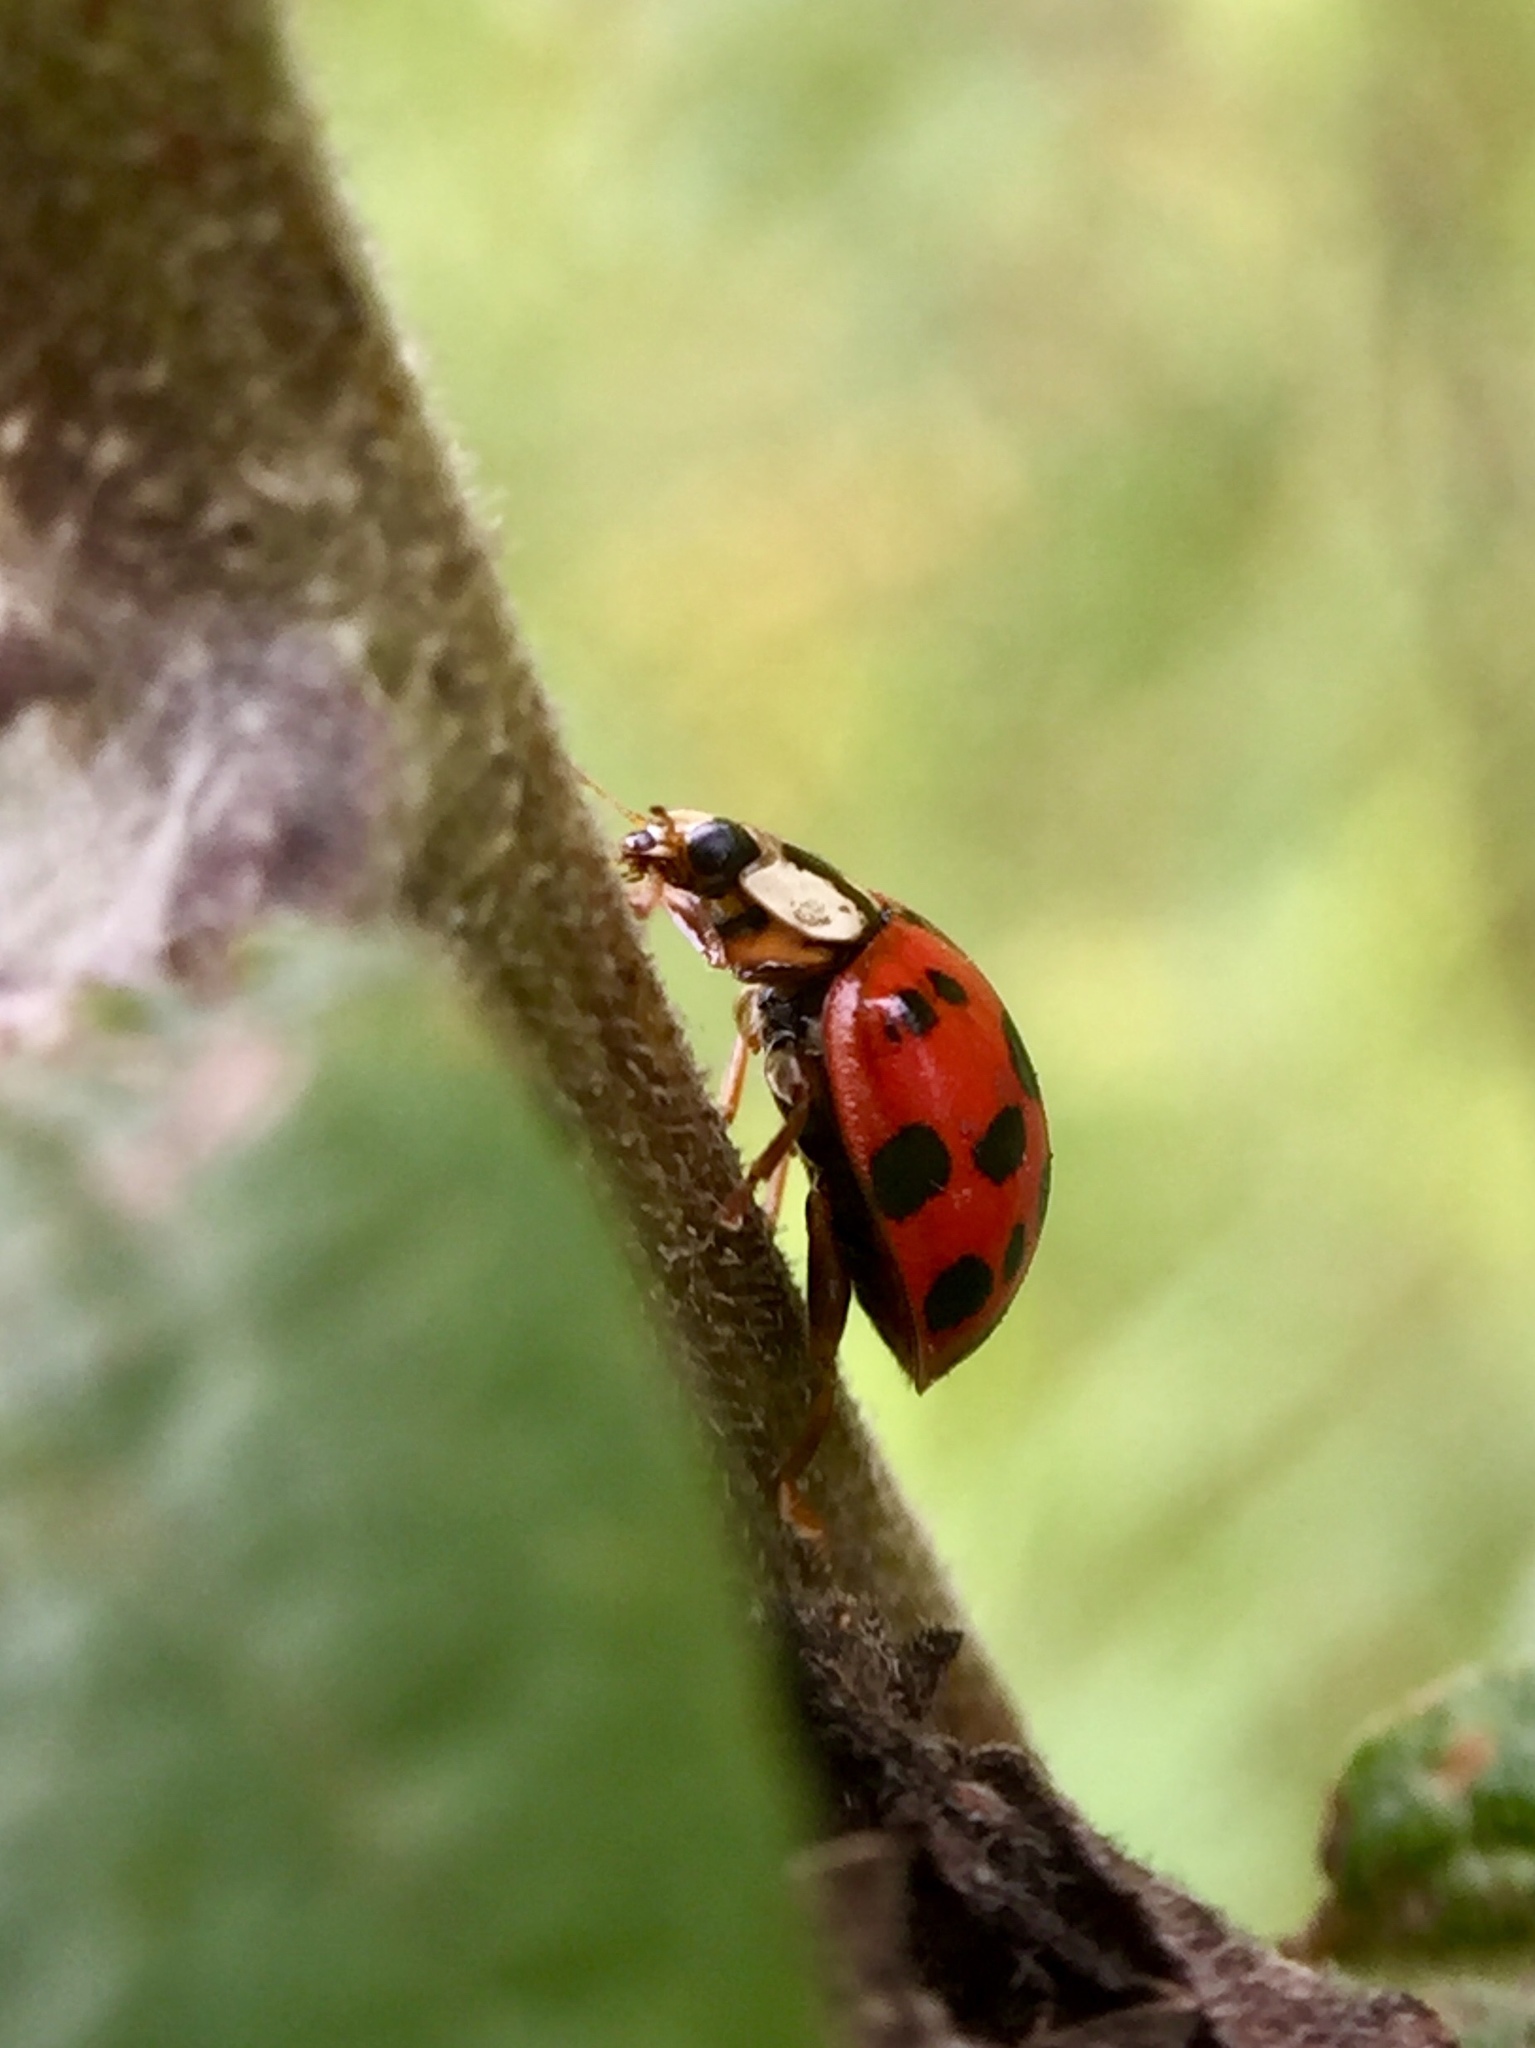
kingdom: Animalia
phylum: Arthropoda
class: Insecta
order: Coleoptera
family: Coccinellidae
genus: Harmonia
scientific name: Harmonia axyridis
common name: Harlequin ladybird
